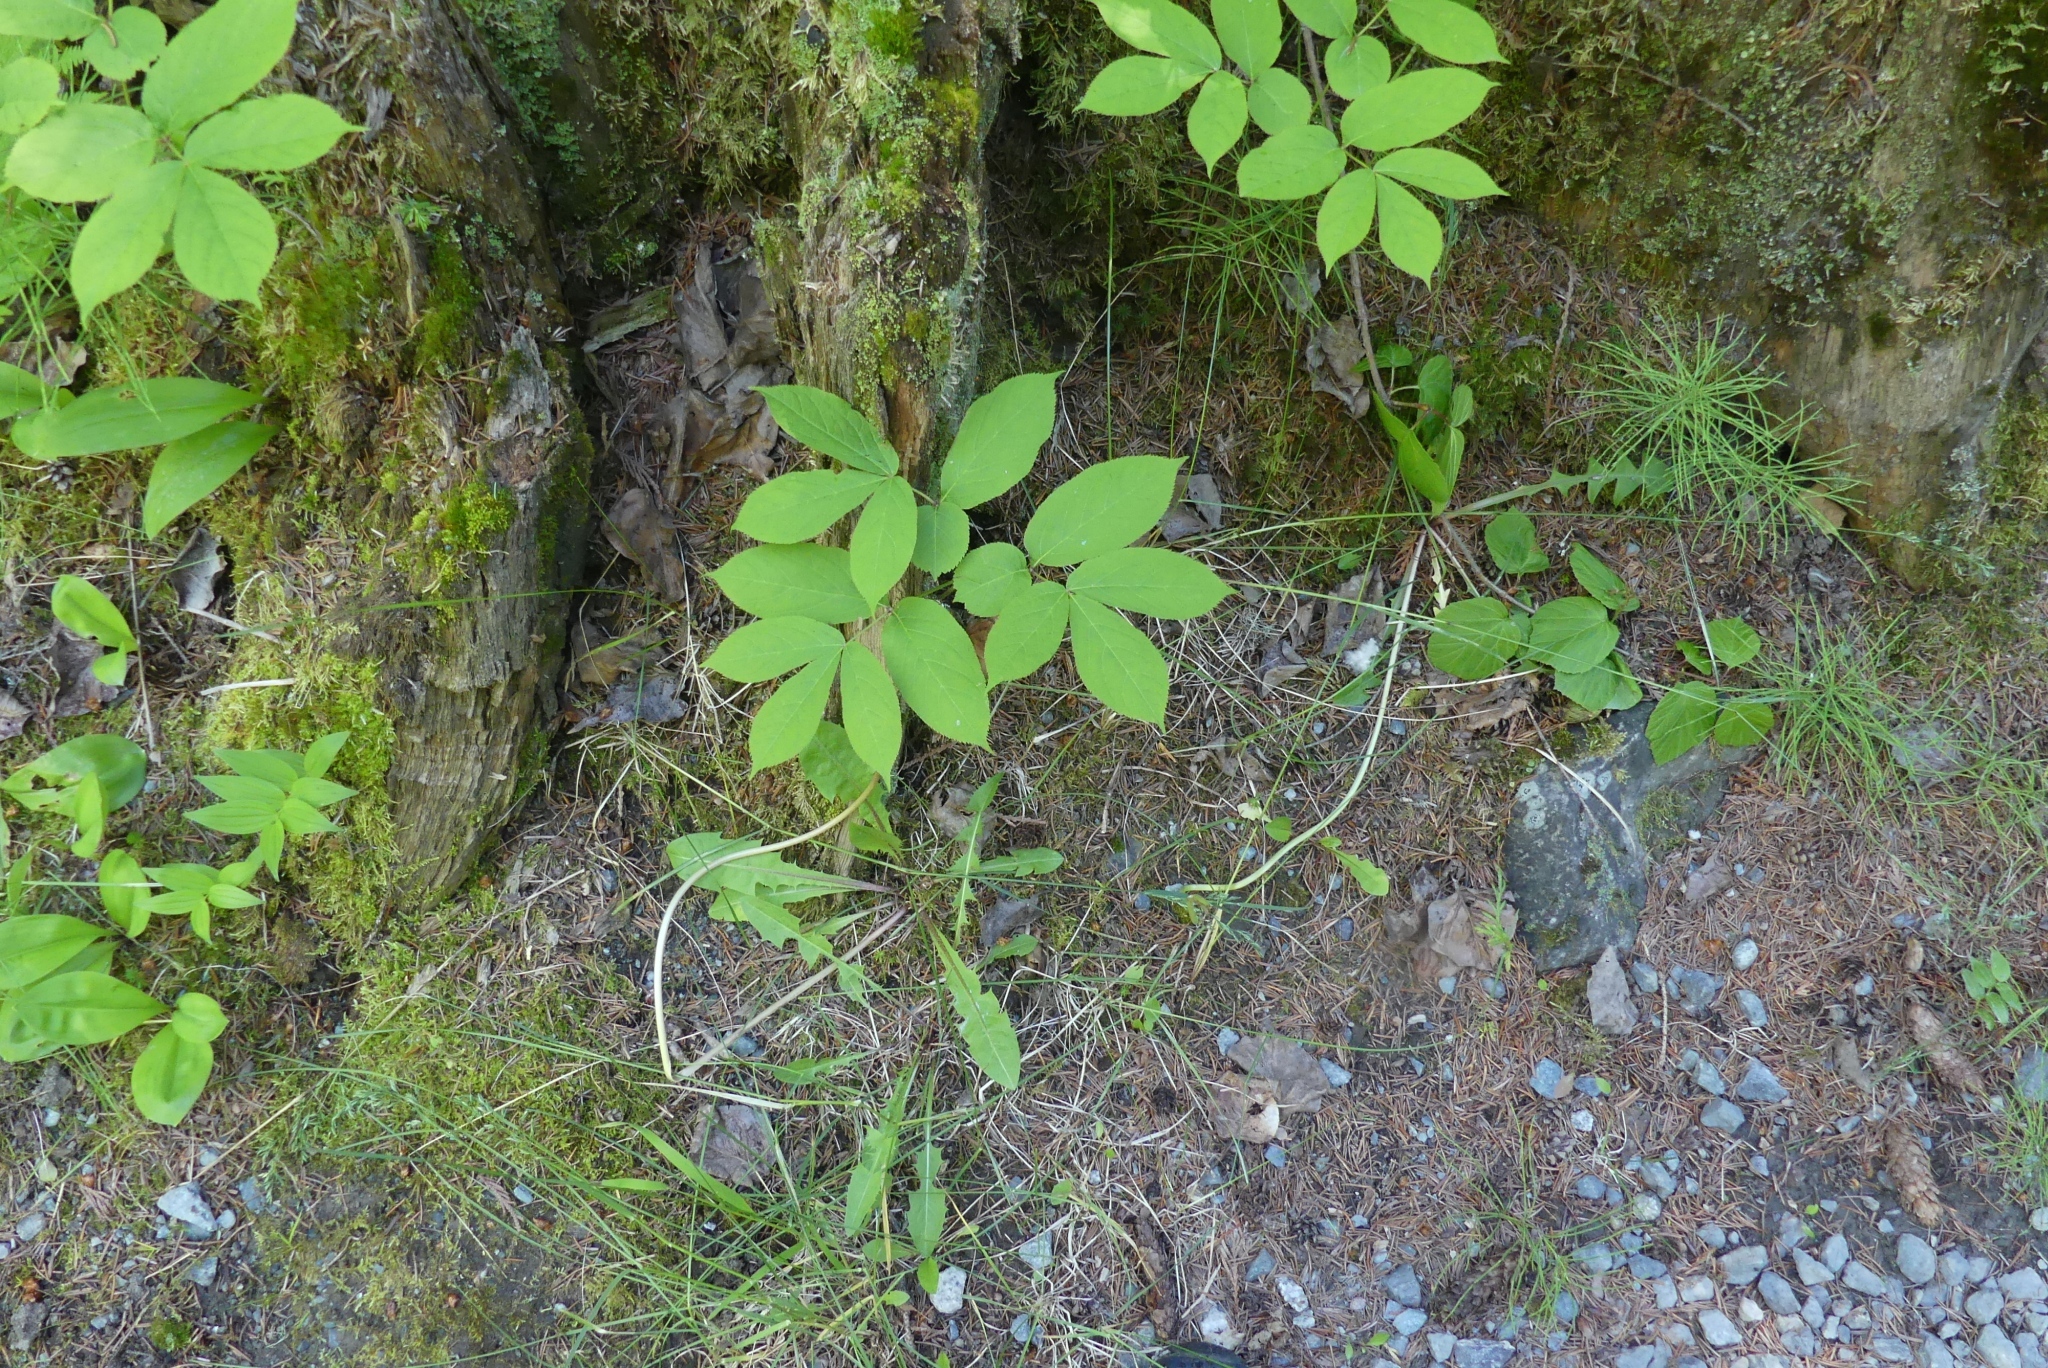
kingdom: Plantae
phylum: Tracheophyta
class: Magnoliopsida
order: Apiales
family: Araliaceae
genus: Aralia
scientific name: Aralia nudicaulis
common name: Wild sarsaparilla
